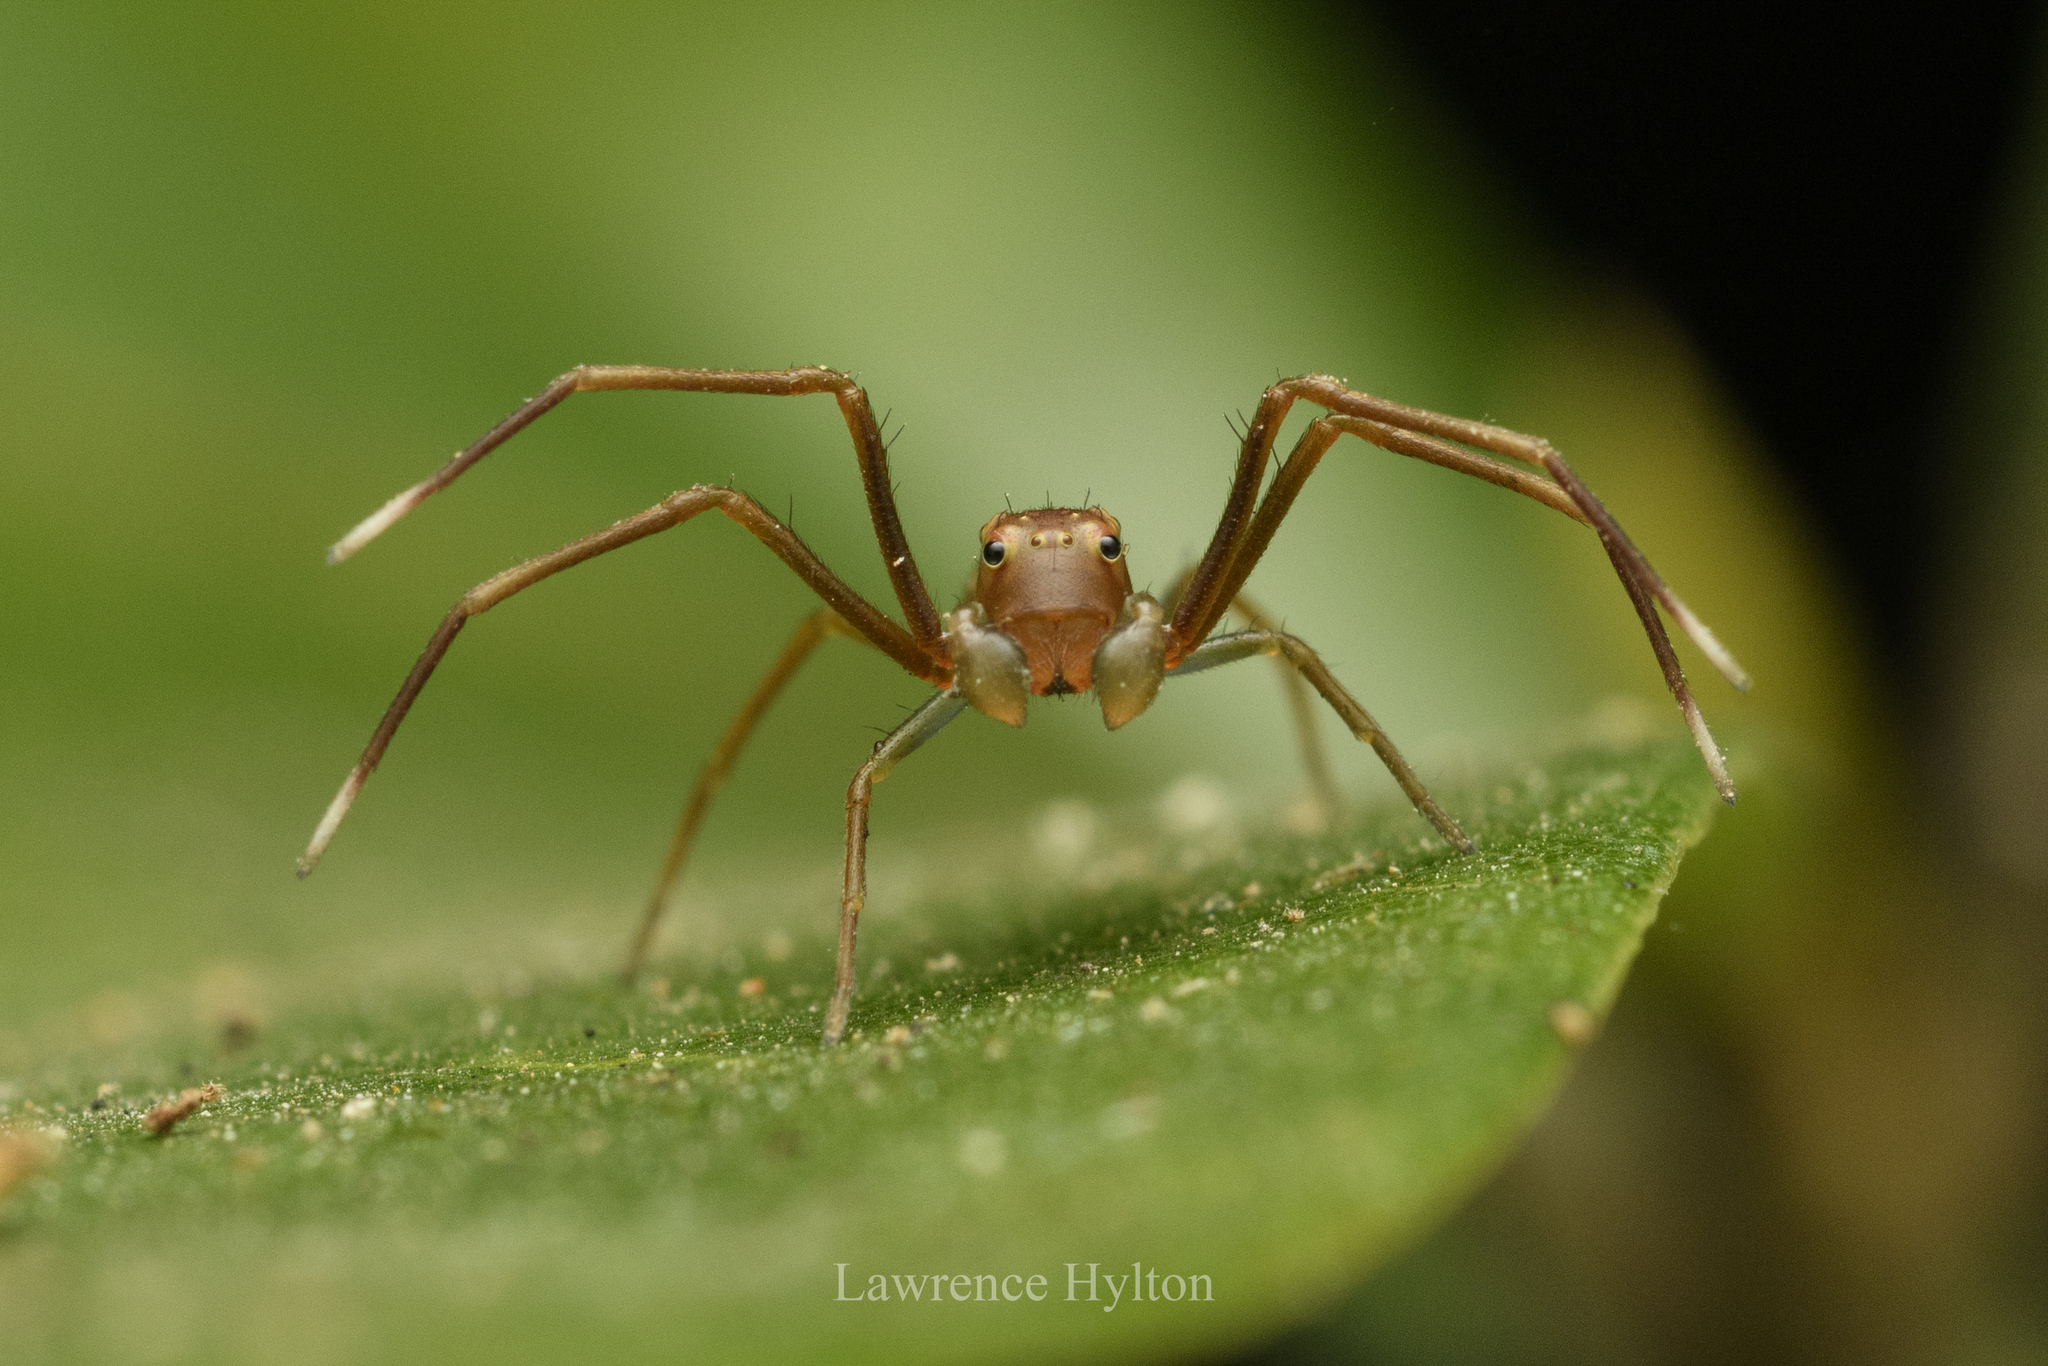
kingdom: Animalia
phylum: Arthropoda
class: Arachnida
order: Araneae
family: Thomisidae
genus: Amyciaea
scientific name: Amyciaea forticeps
